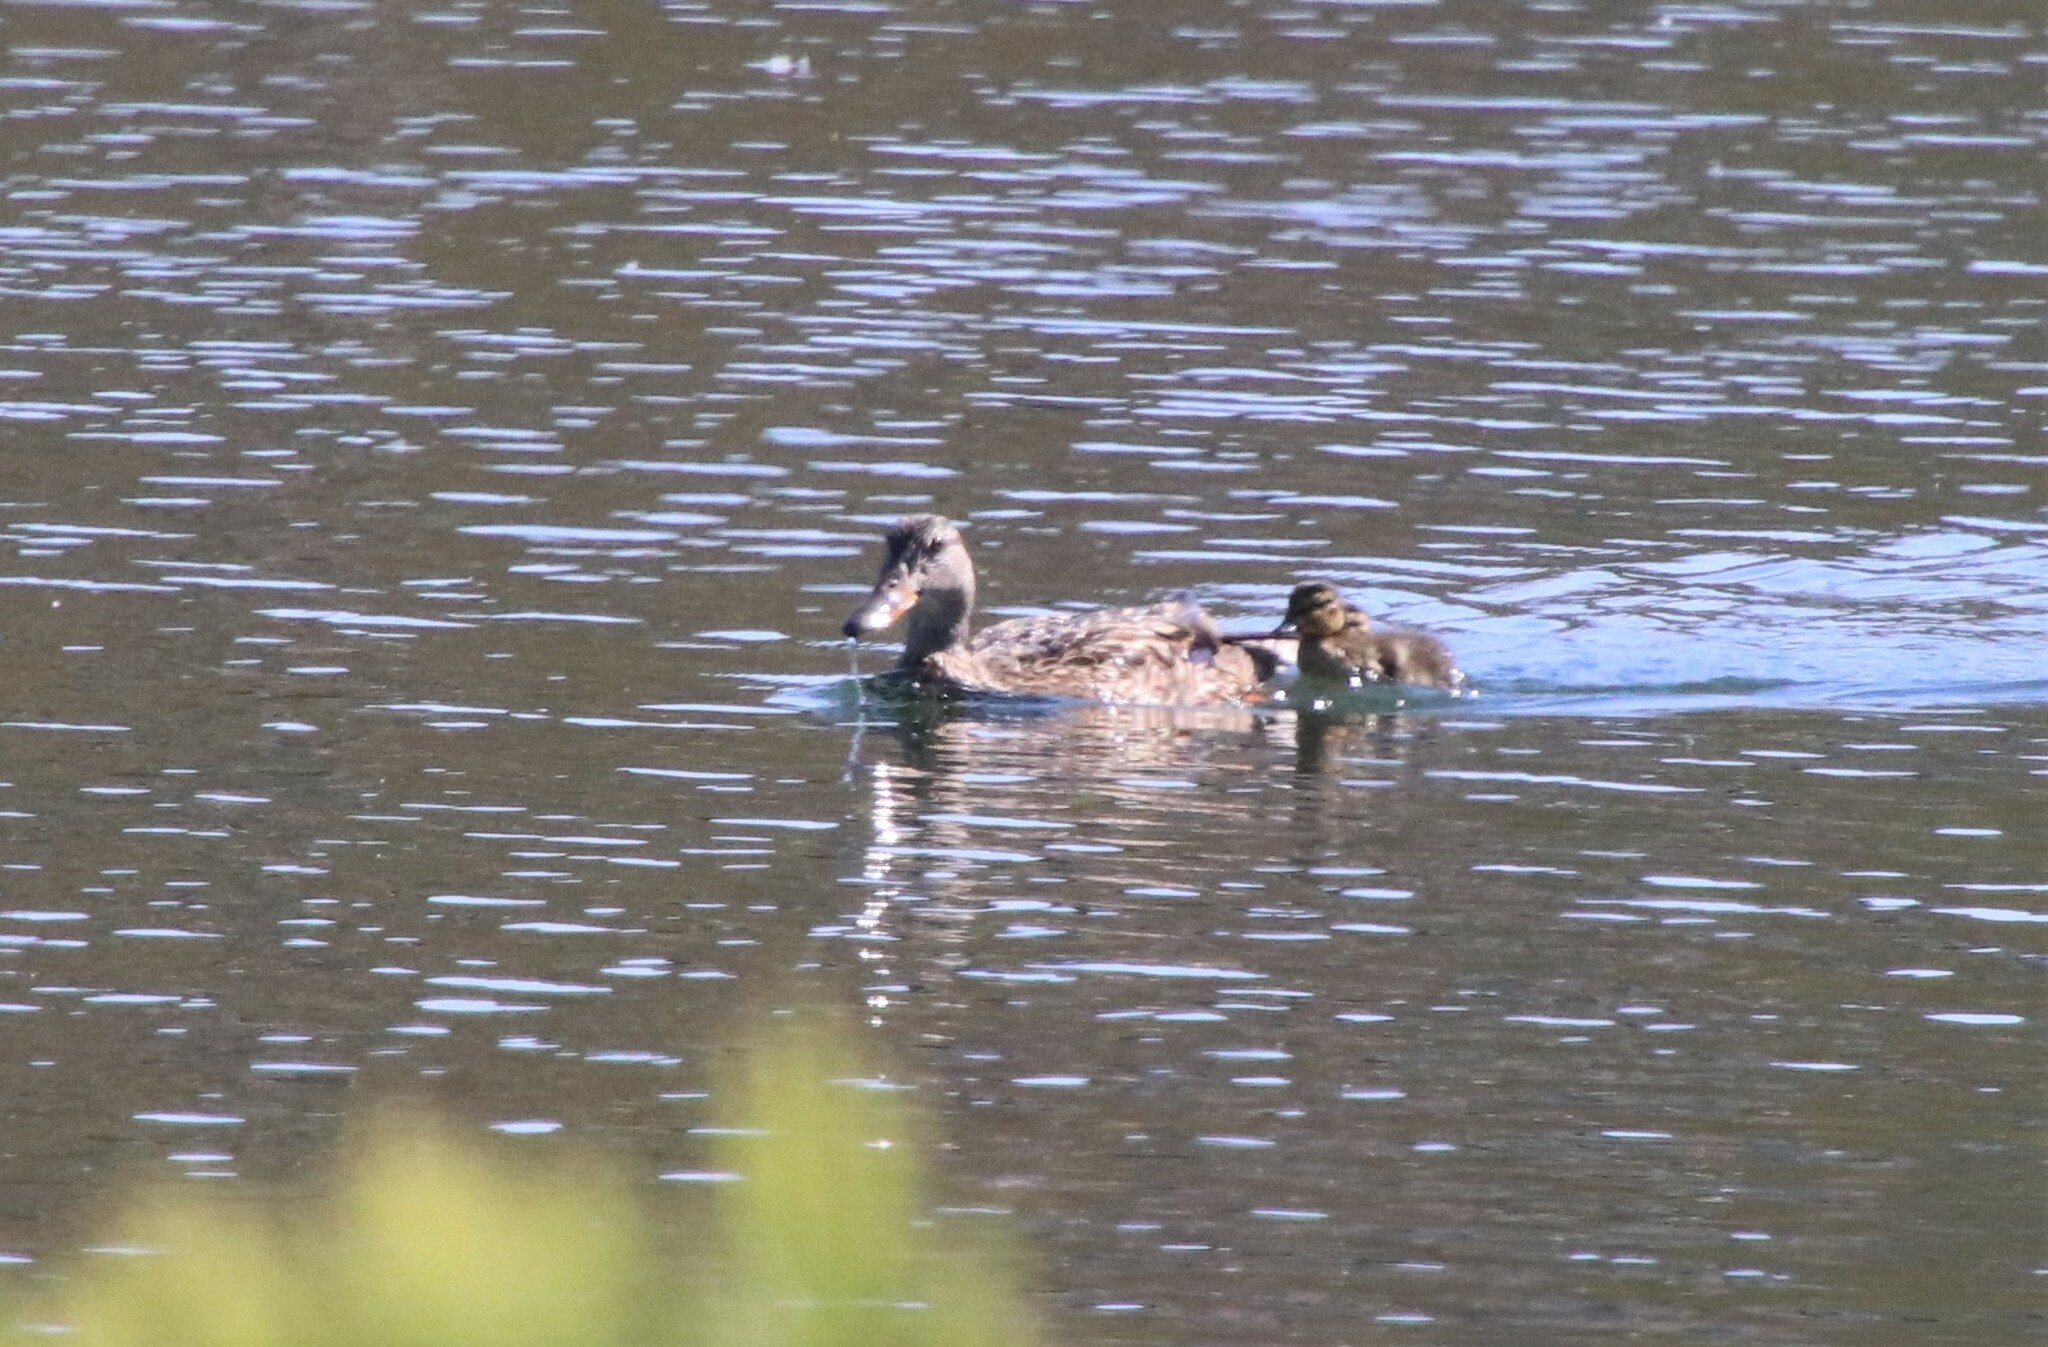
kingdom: Animalia
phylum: Chordata
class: Aves
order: Anseriformes
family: Anatidae
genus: Anas
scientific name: Anas platyrhynchos
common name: Mallard
